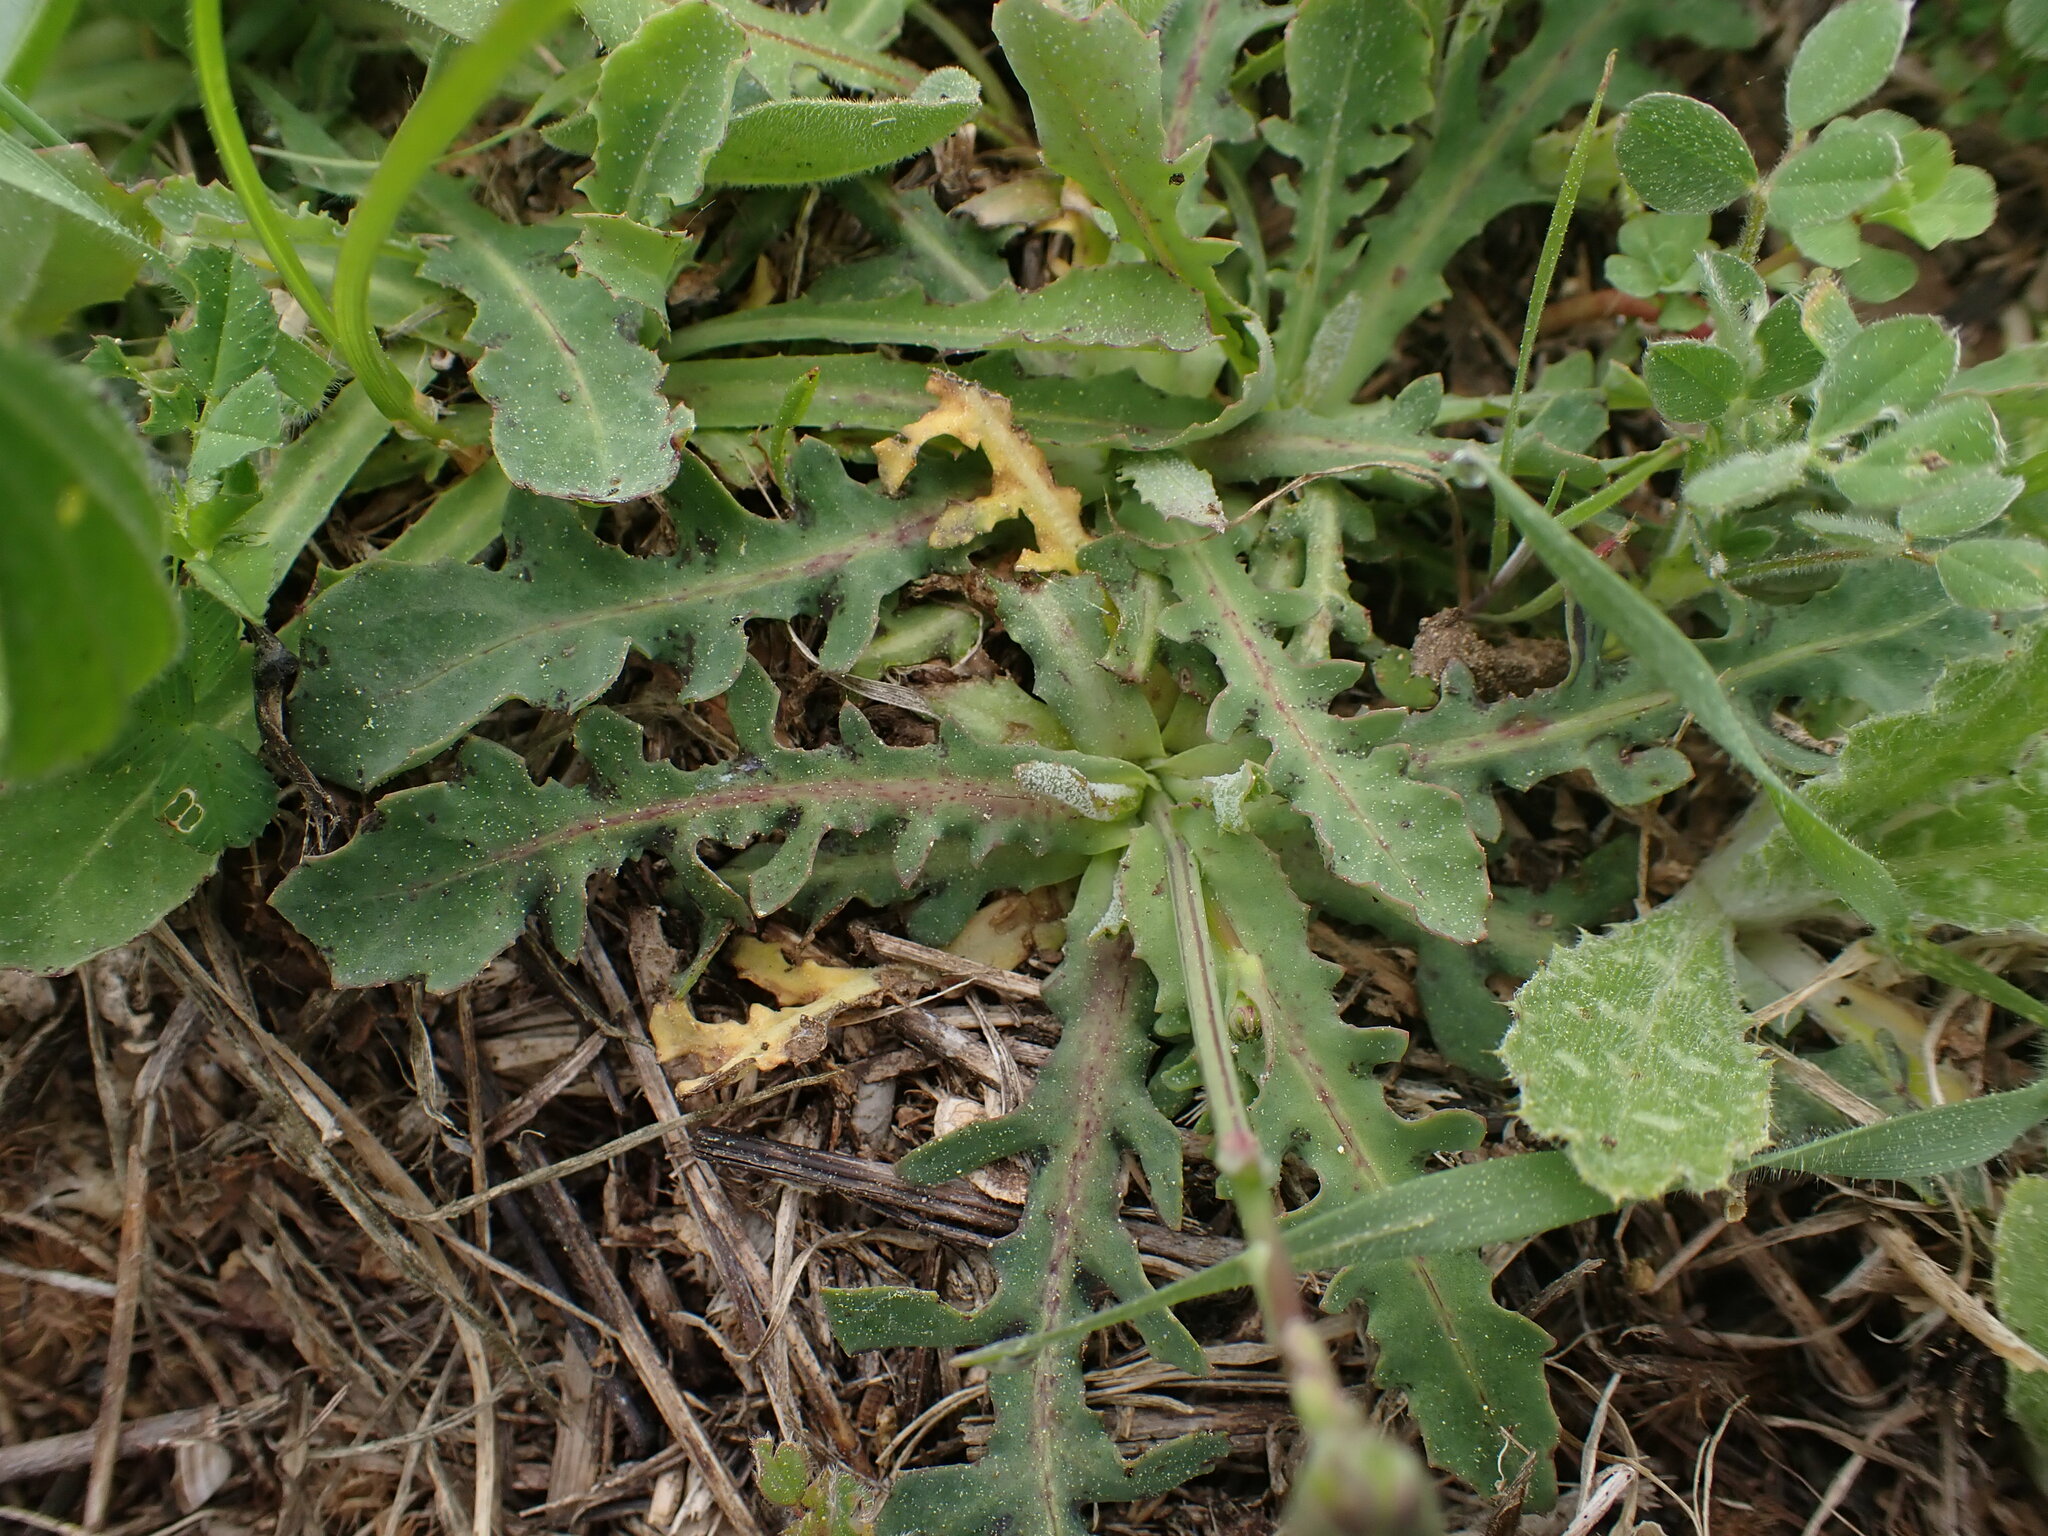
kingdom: Plantae
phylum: Tracheophyta
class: Magnoliopsida
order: Asterales
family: Asteraceae
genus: Reichardia
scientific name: Reichardia picroides
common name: Common brighteyes
